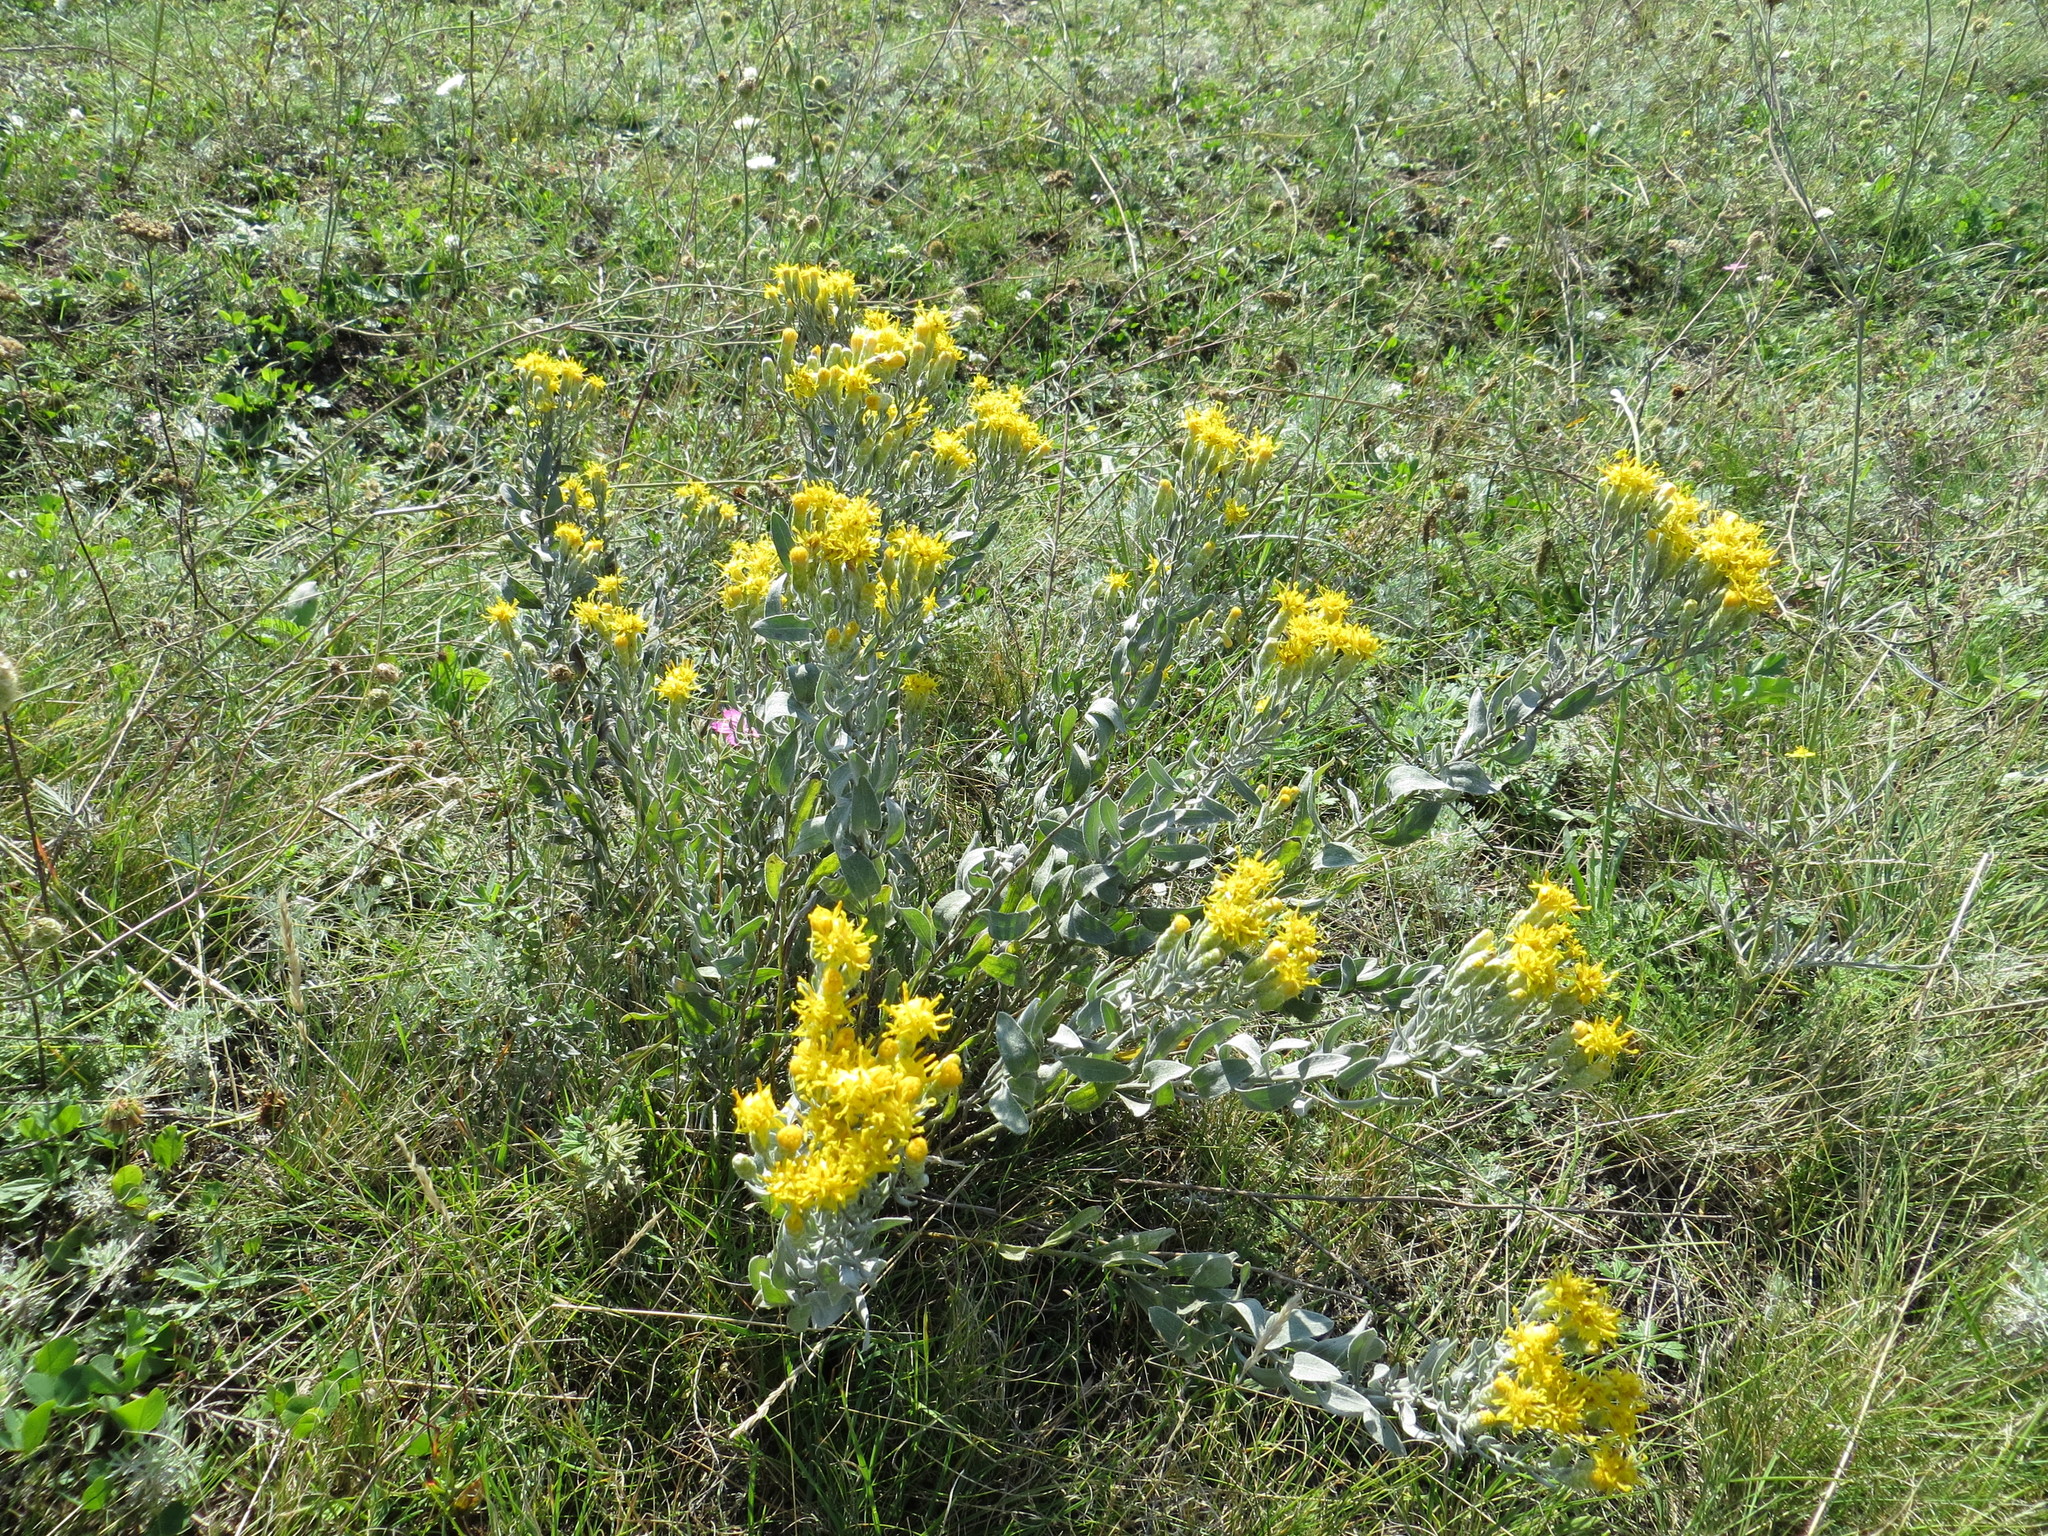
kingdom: Plantae
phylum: Tracheophyta
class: Magnoliopsida
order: Asterales
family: Asteraceae
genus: Galatella
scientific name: Galatella villosa
